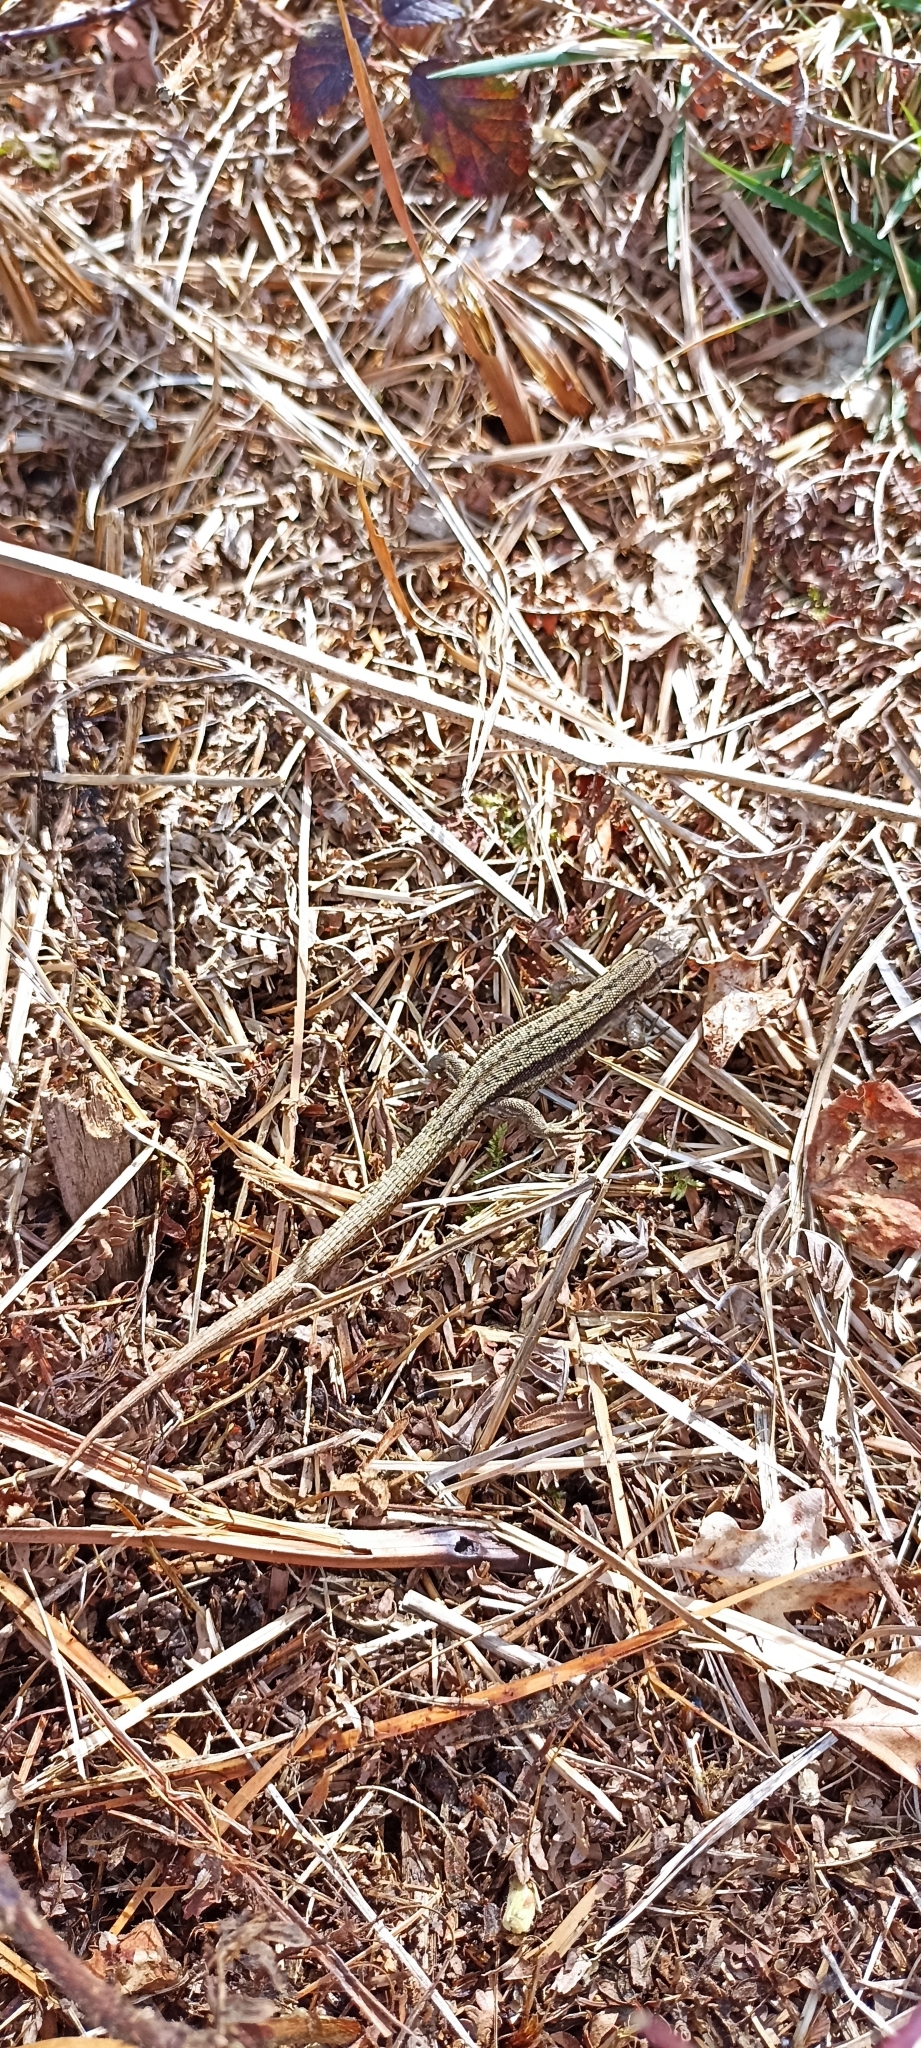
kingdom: Animalia
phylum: Chordata
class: Squamata
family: Lacertidae
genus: Zootoca
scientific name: Zootoca vivipara
